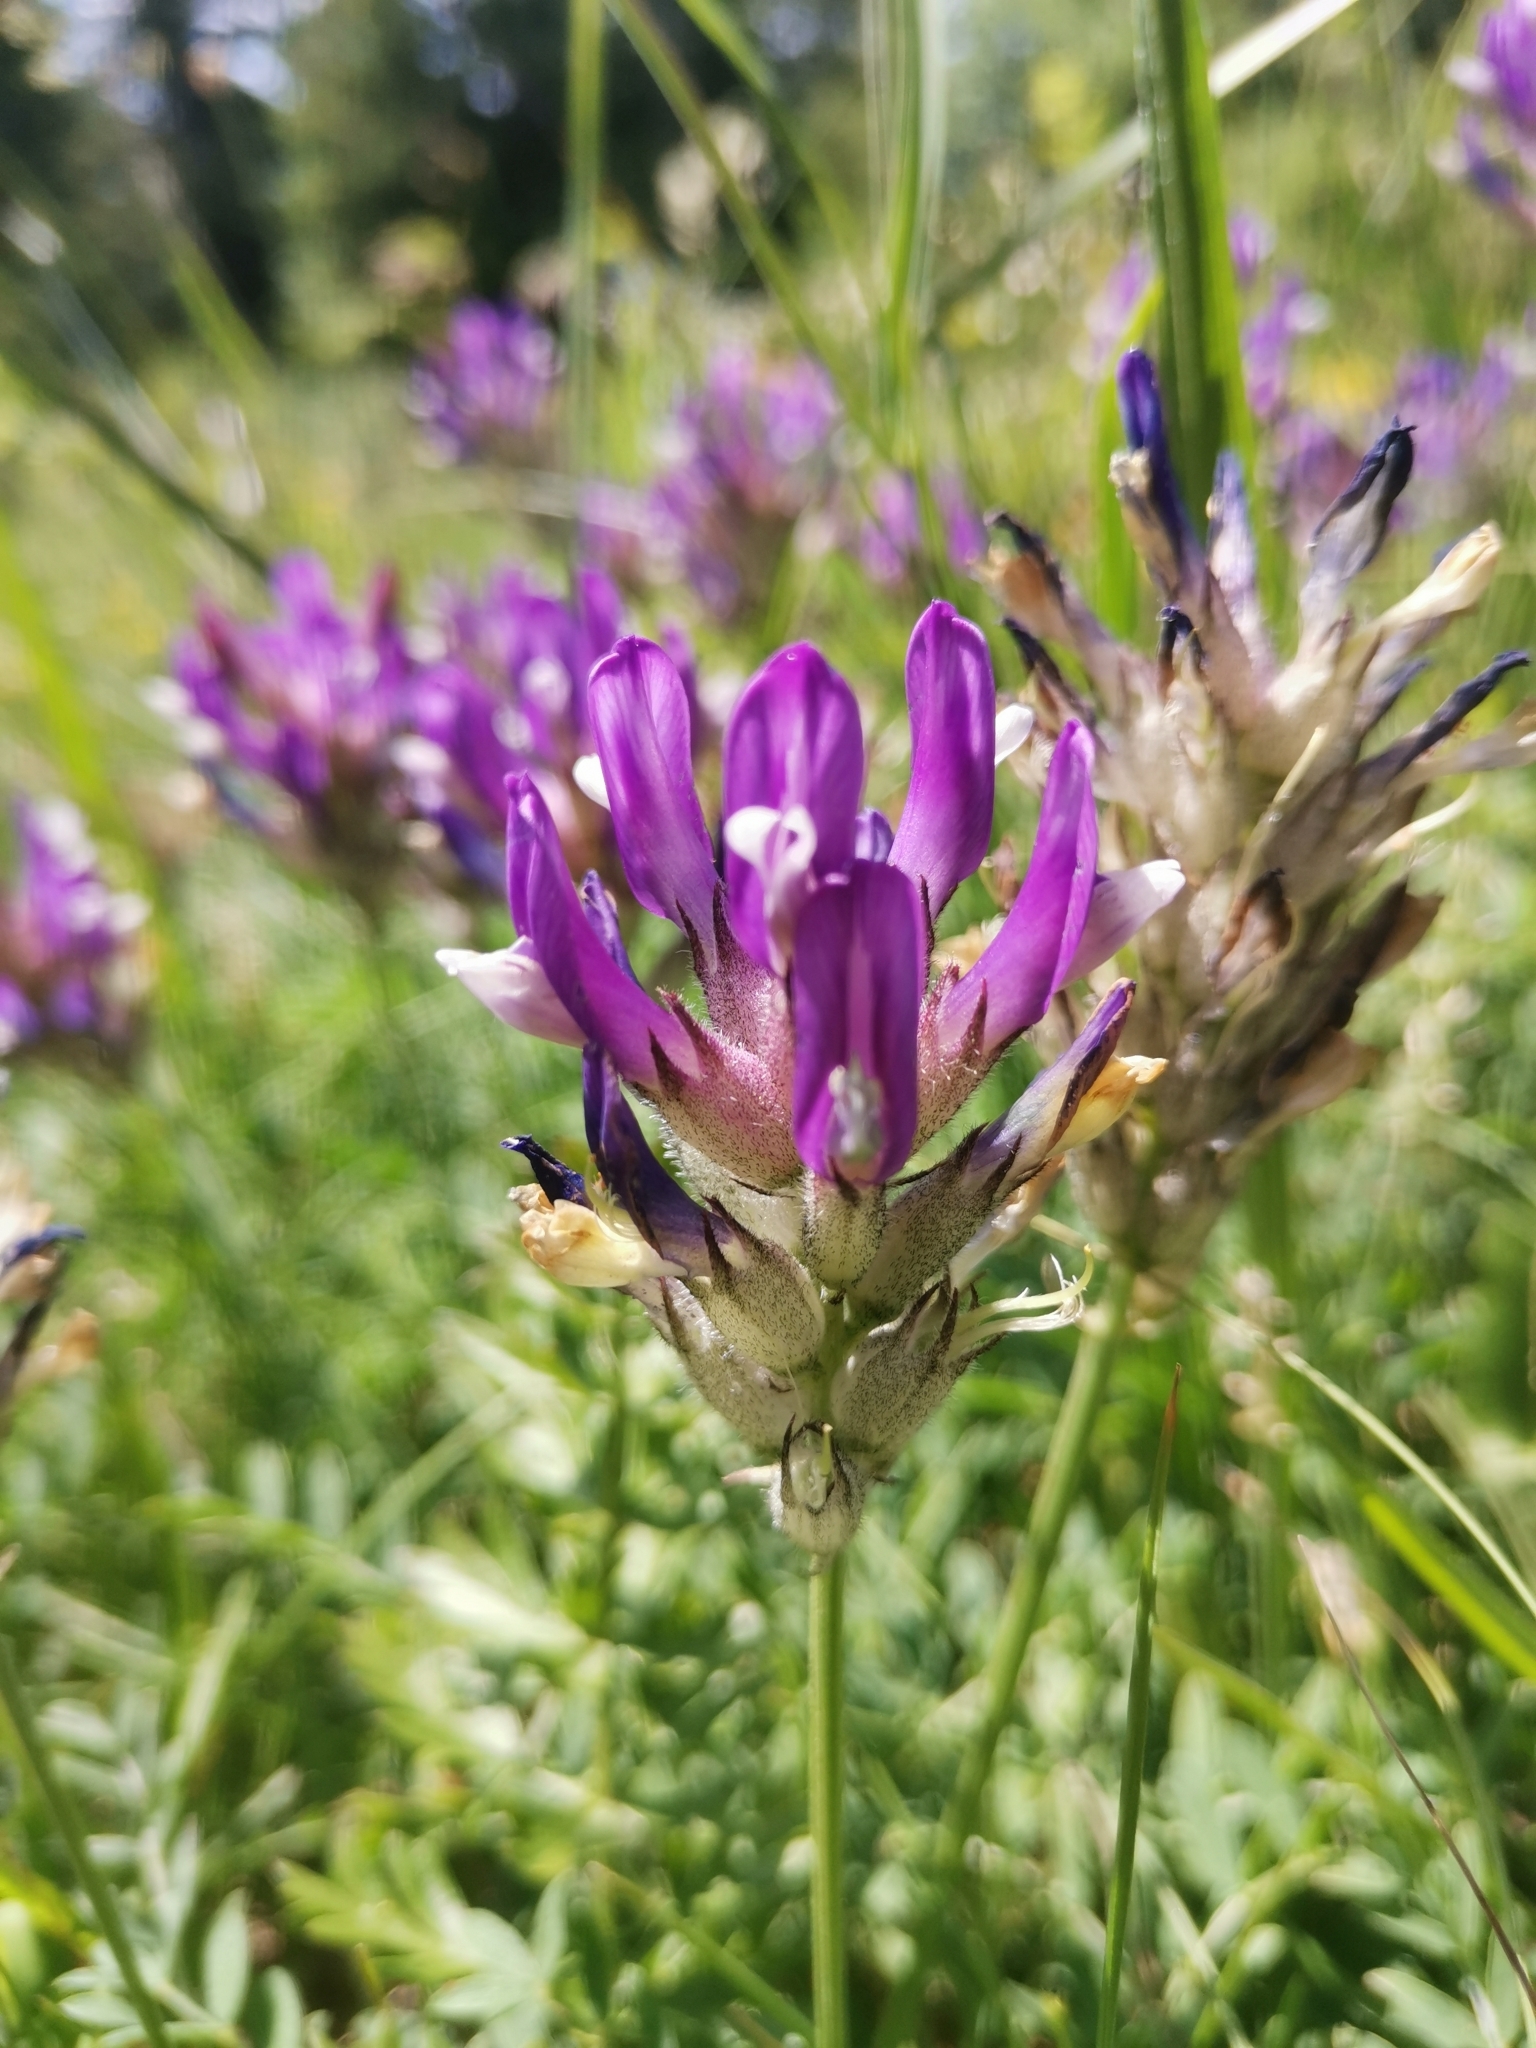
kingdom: Plantae
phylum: Tracheophyta
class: Magnoliopsida
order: Fabales
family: Fabaceae
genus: Astragalus
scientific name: Astragalus vesicarius
